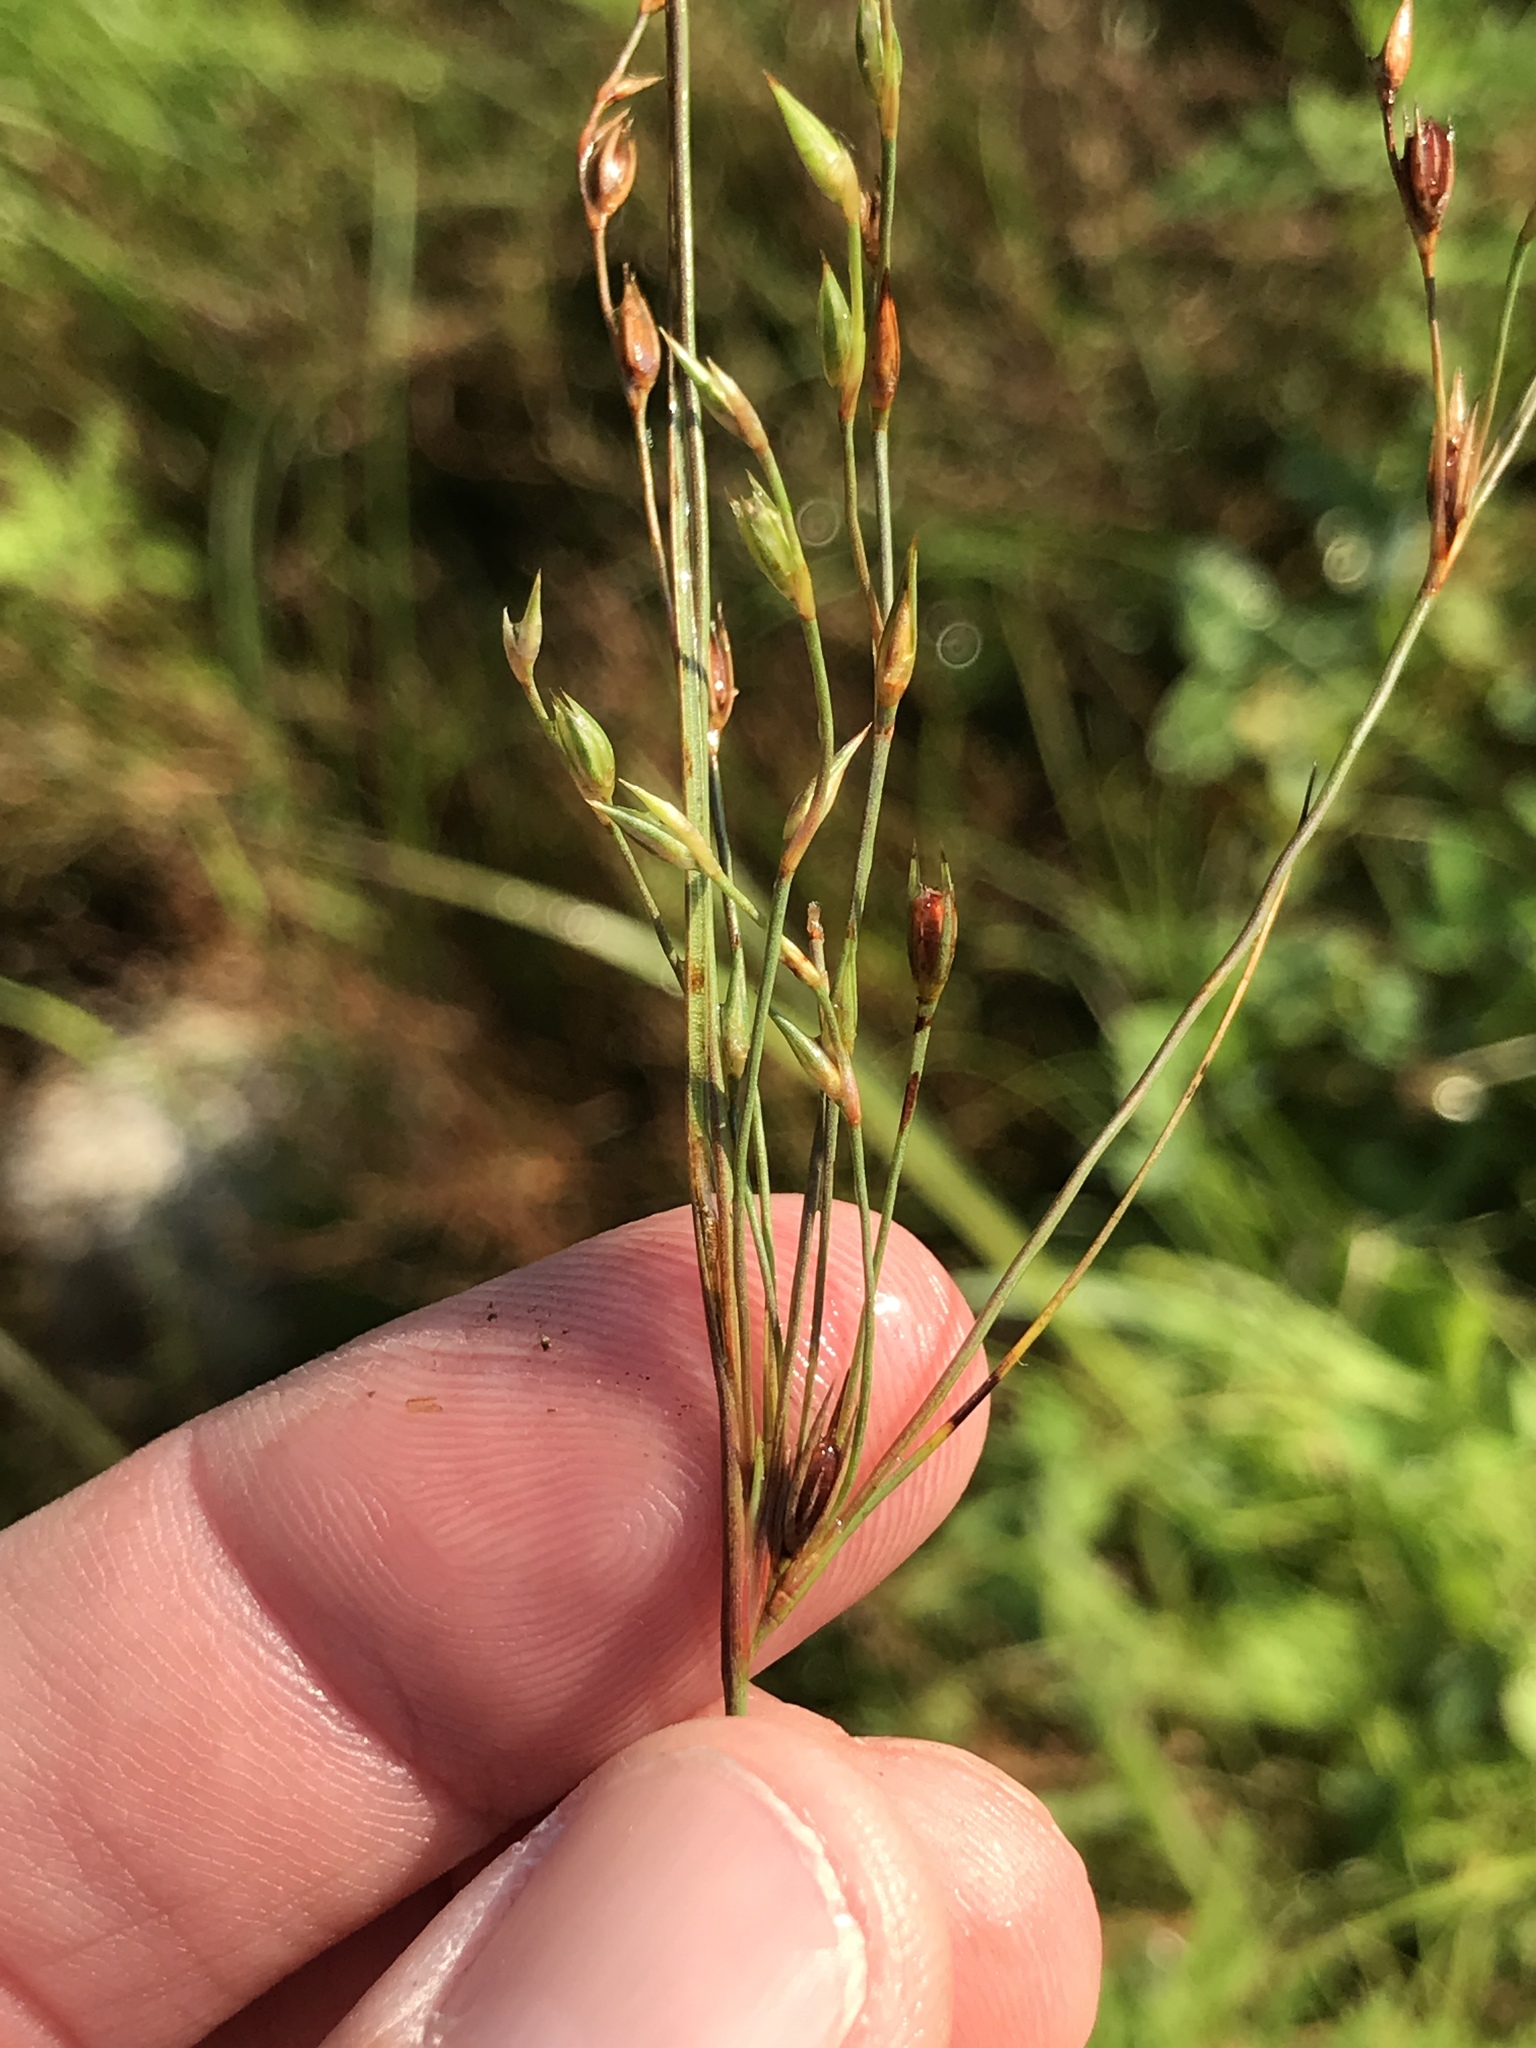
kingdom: Plantae
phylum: Tracheophyta
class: Liliopsida
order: Poales
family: Juncaceae
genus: Juncus
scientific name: Juncus bufonius
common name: Toad rush
